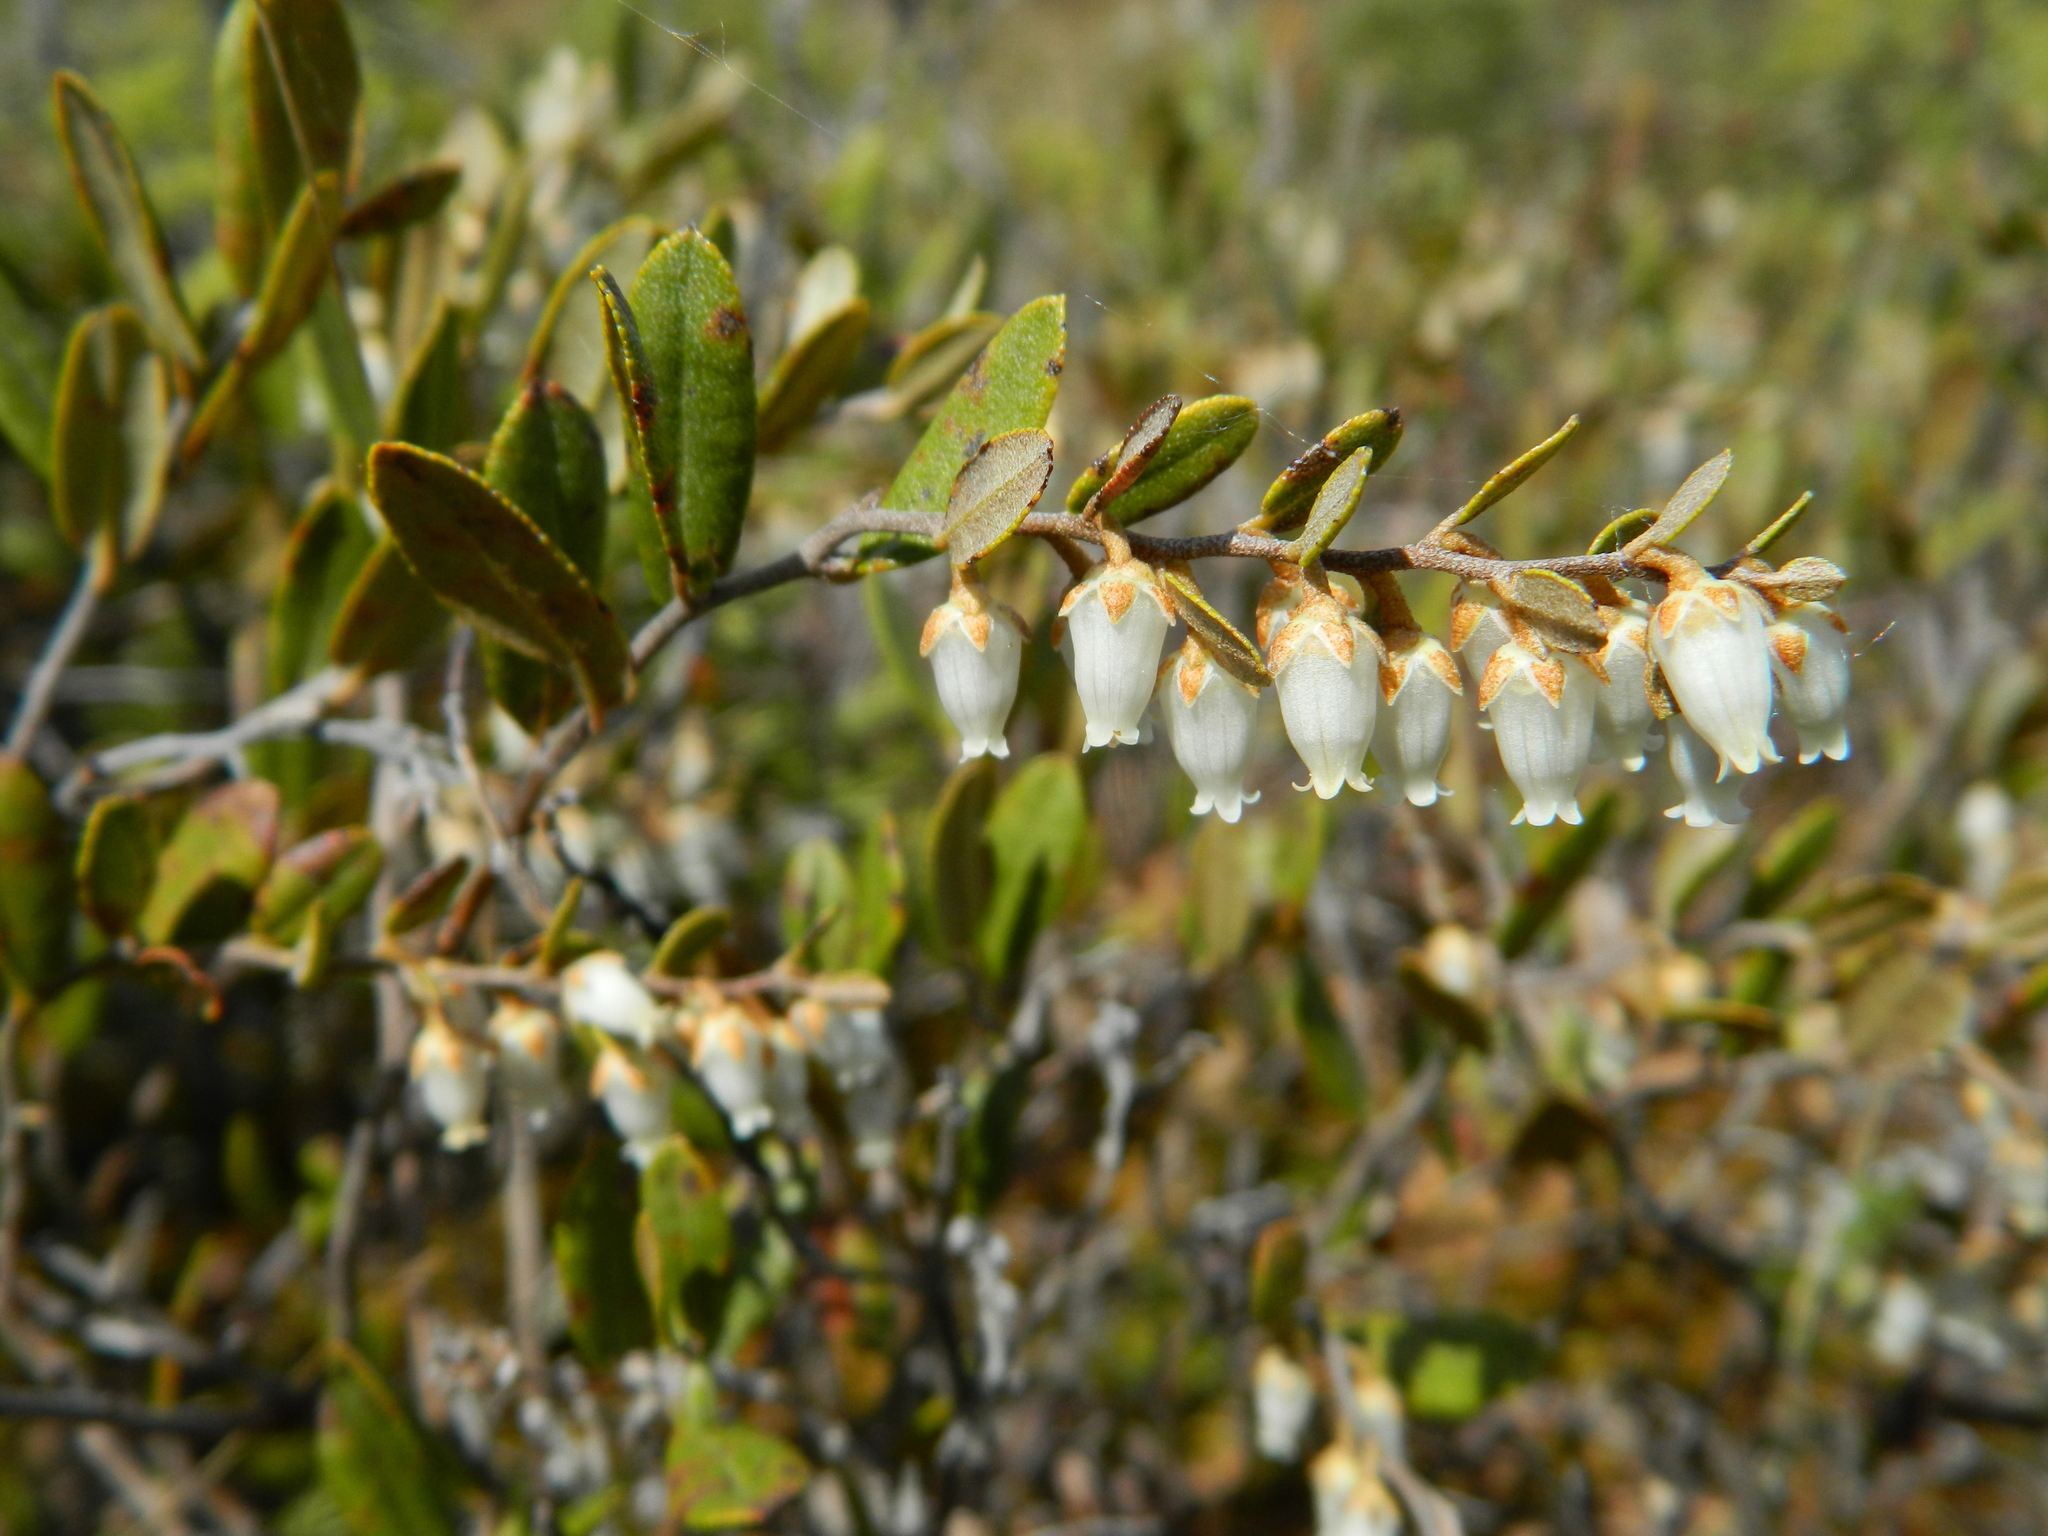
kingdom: Plantae
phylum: Tracheophyta
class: Magnoliopsida
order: Ericales
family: Ericaceae
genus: Chamaedaphne
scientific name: Chamaedaphne calyculata
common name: Leatherleaf
